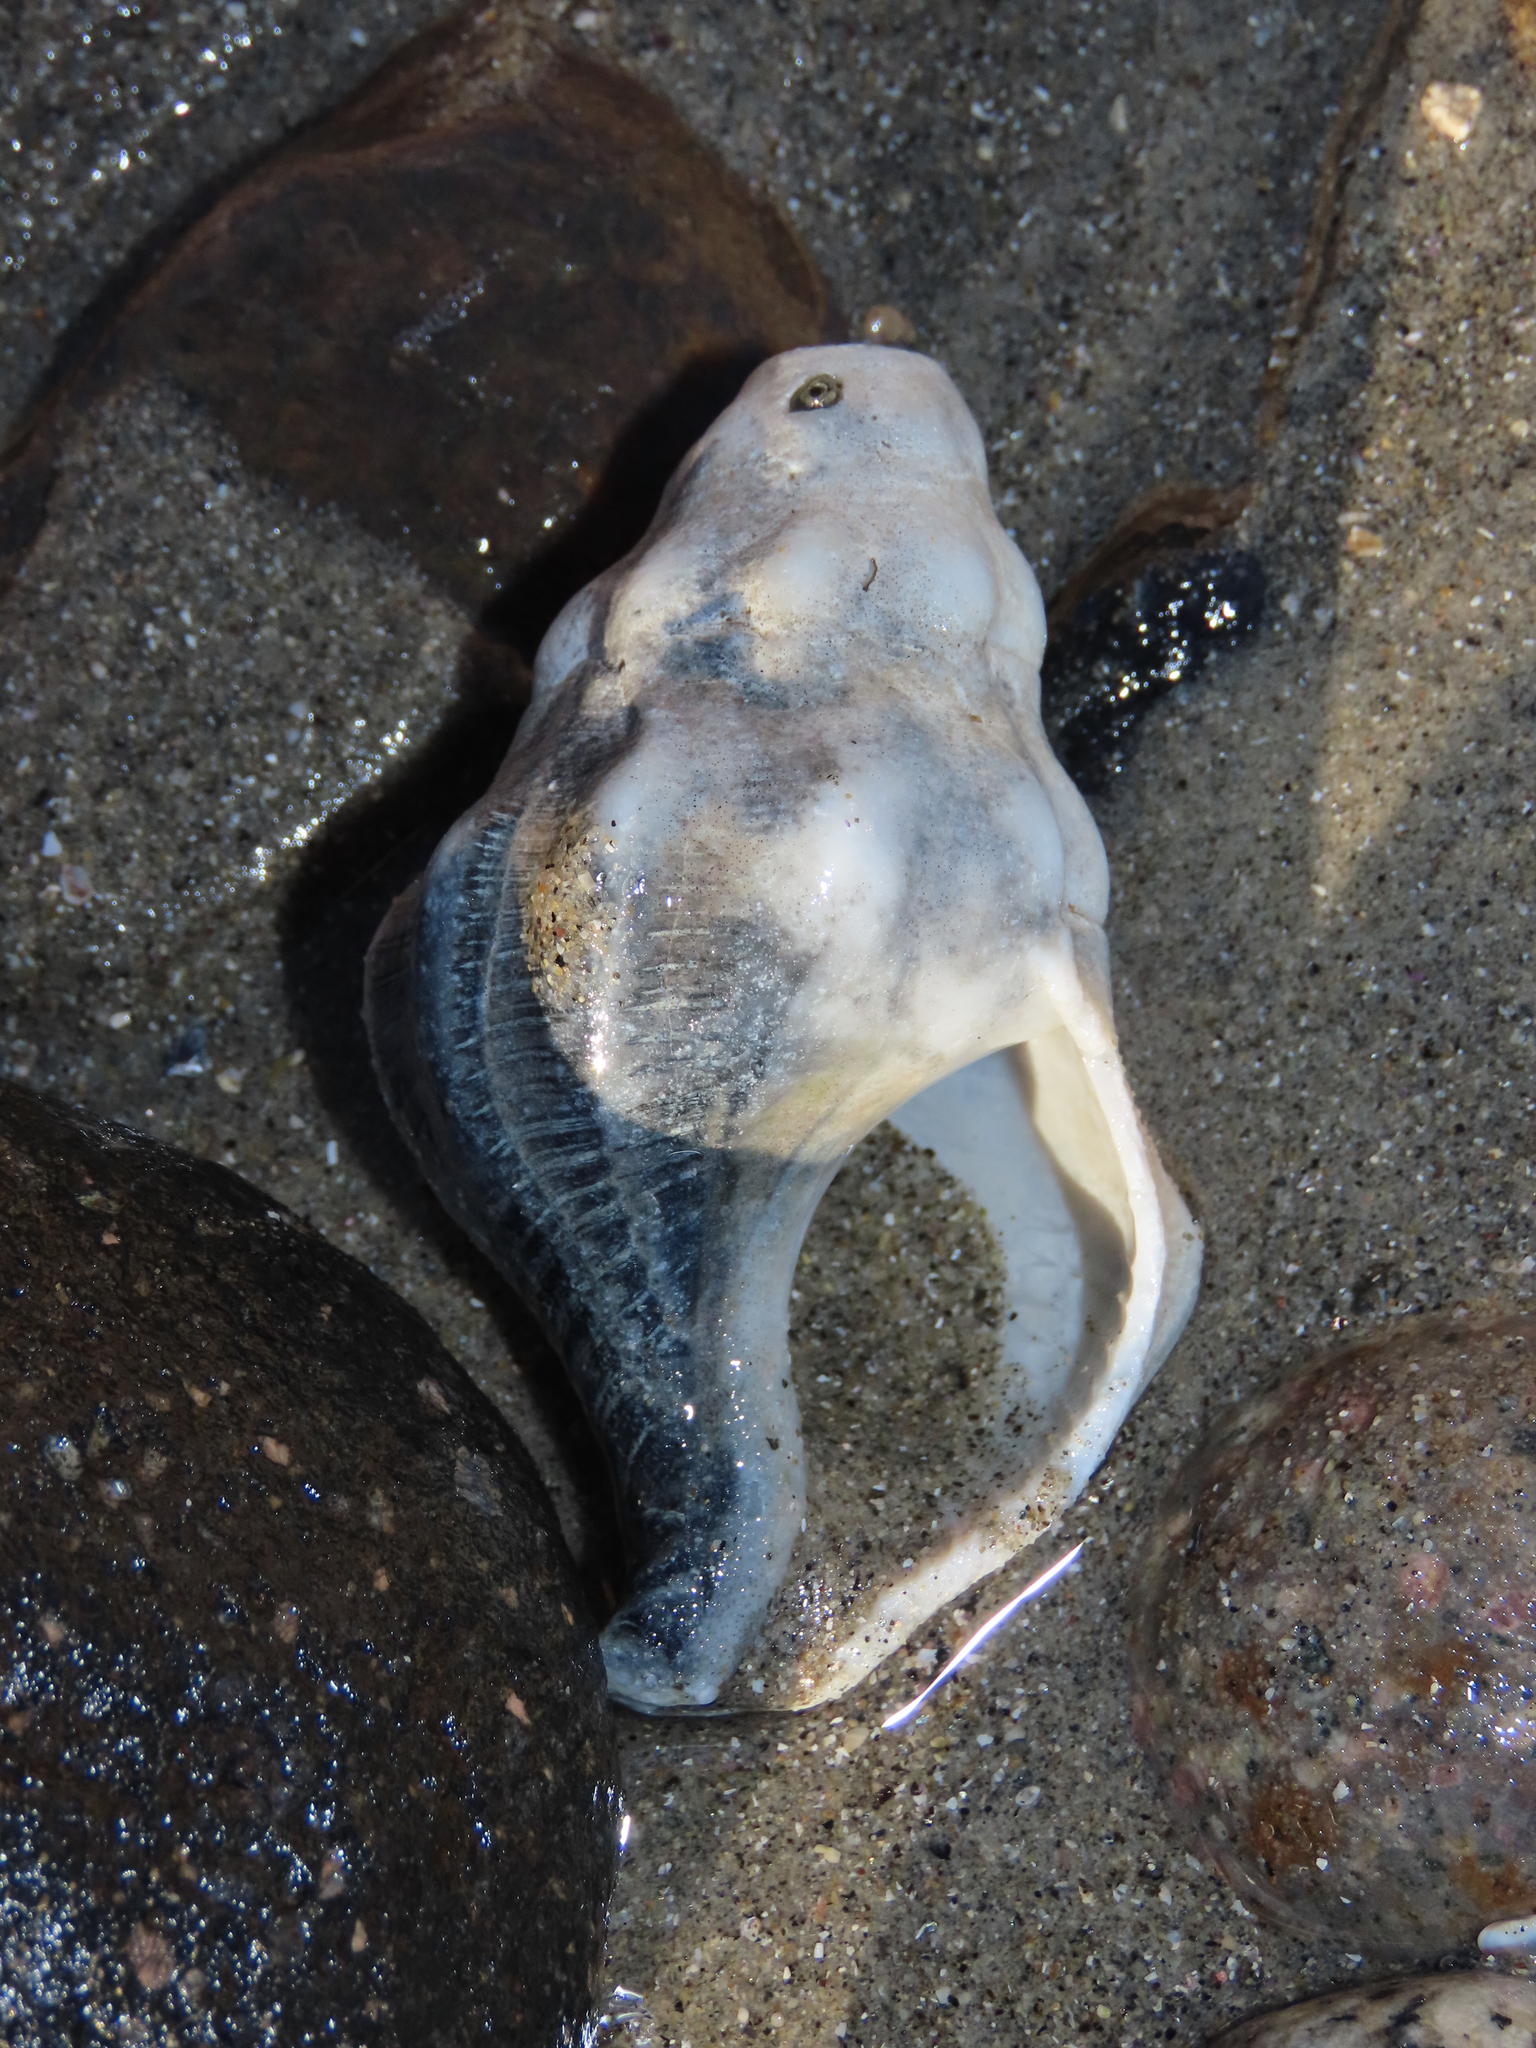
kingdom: Animalia
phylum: Mollusca
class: Gastropoda
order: Neogastropoda
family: Austrosiphonidae
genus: Kelletia
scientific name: Kelletia kelletii
